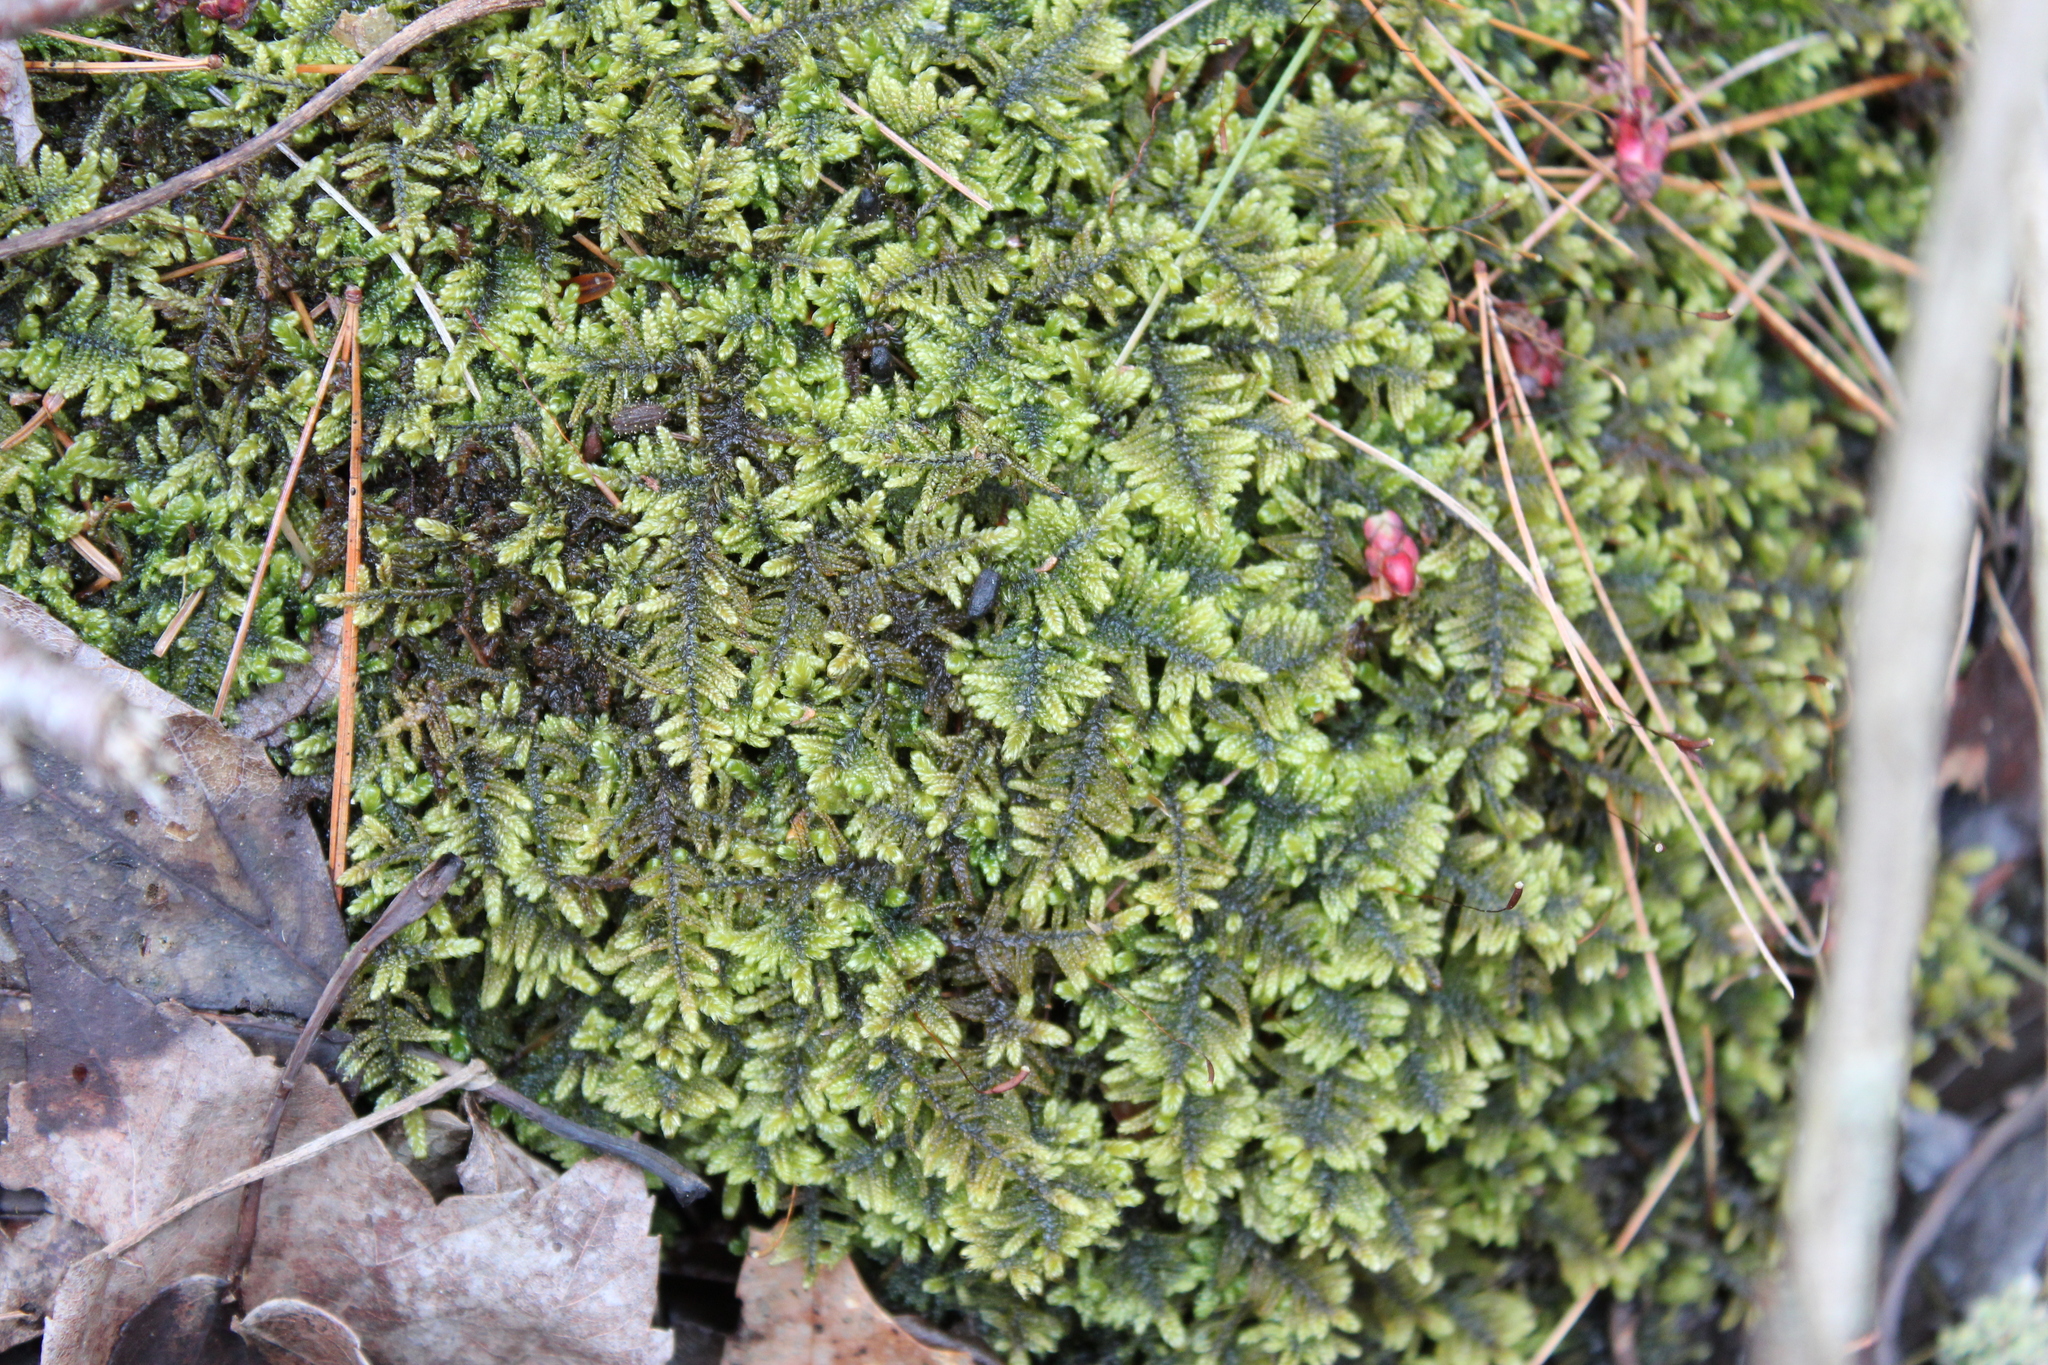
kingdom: Plantae
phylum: Bryophyta
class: Bryopsida
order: Hypnales
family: Callicladiaceae
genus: Callicladium
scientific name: Callicladium imponens
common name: Brocade moss
